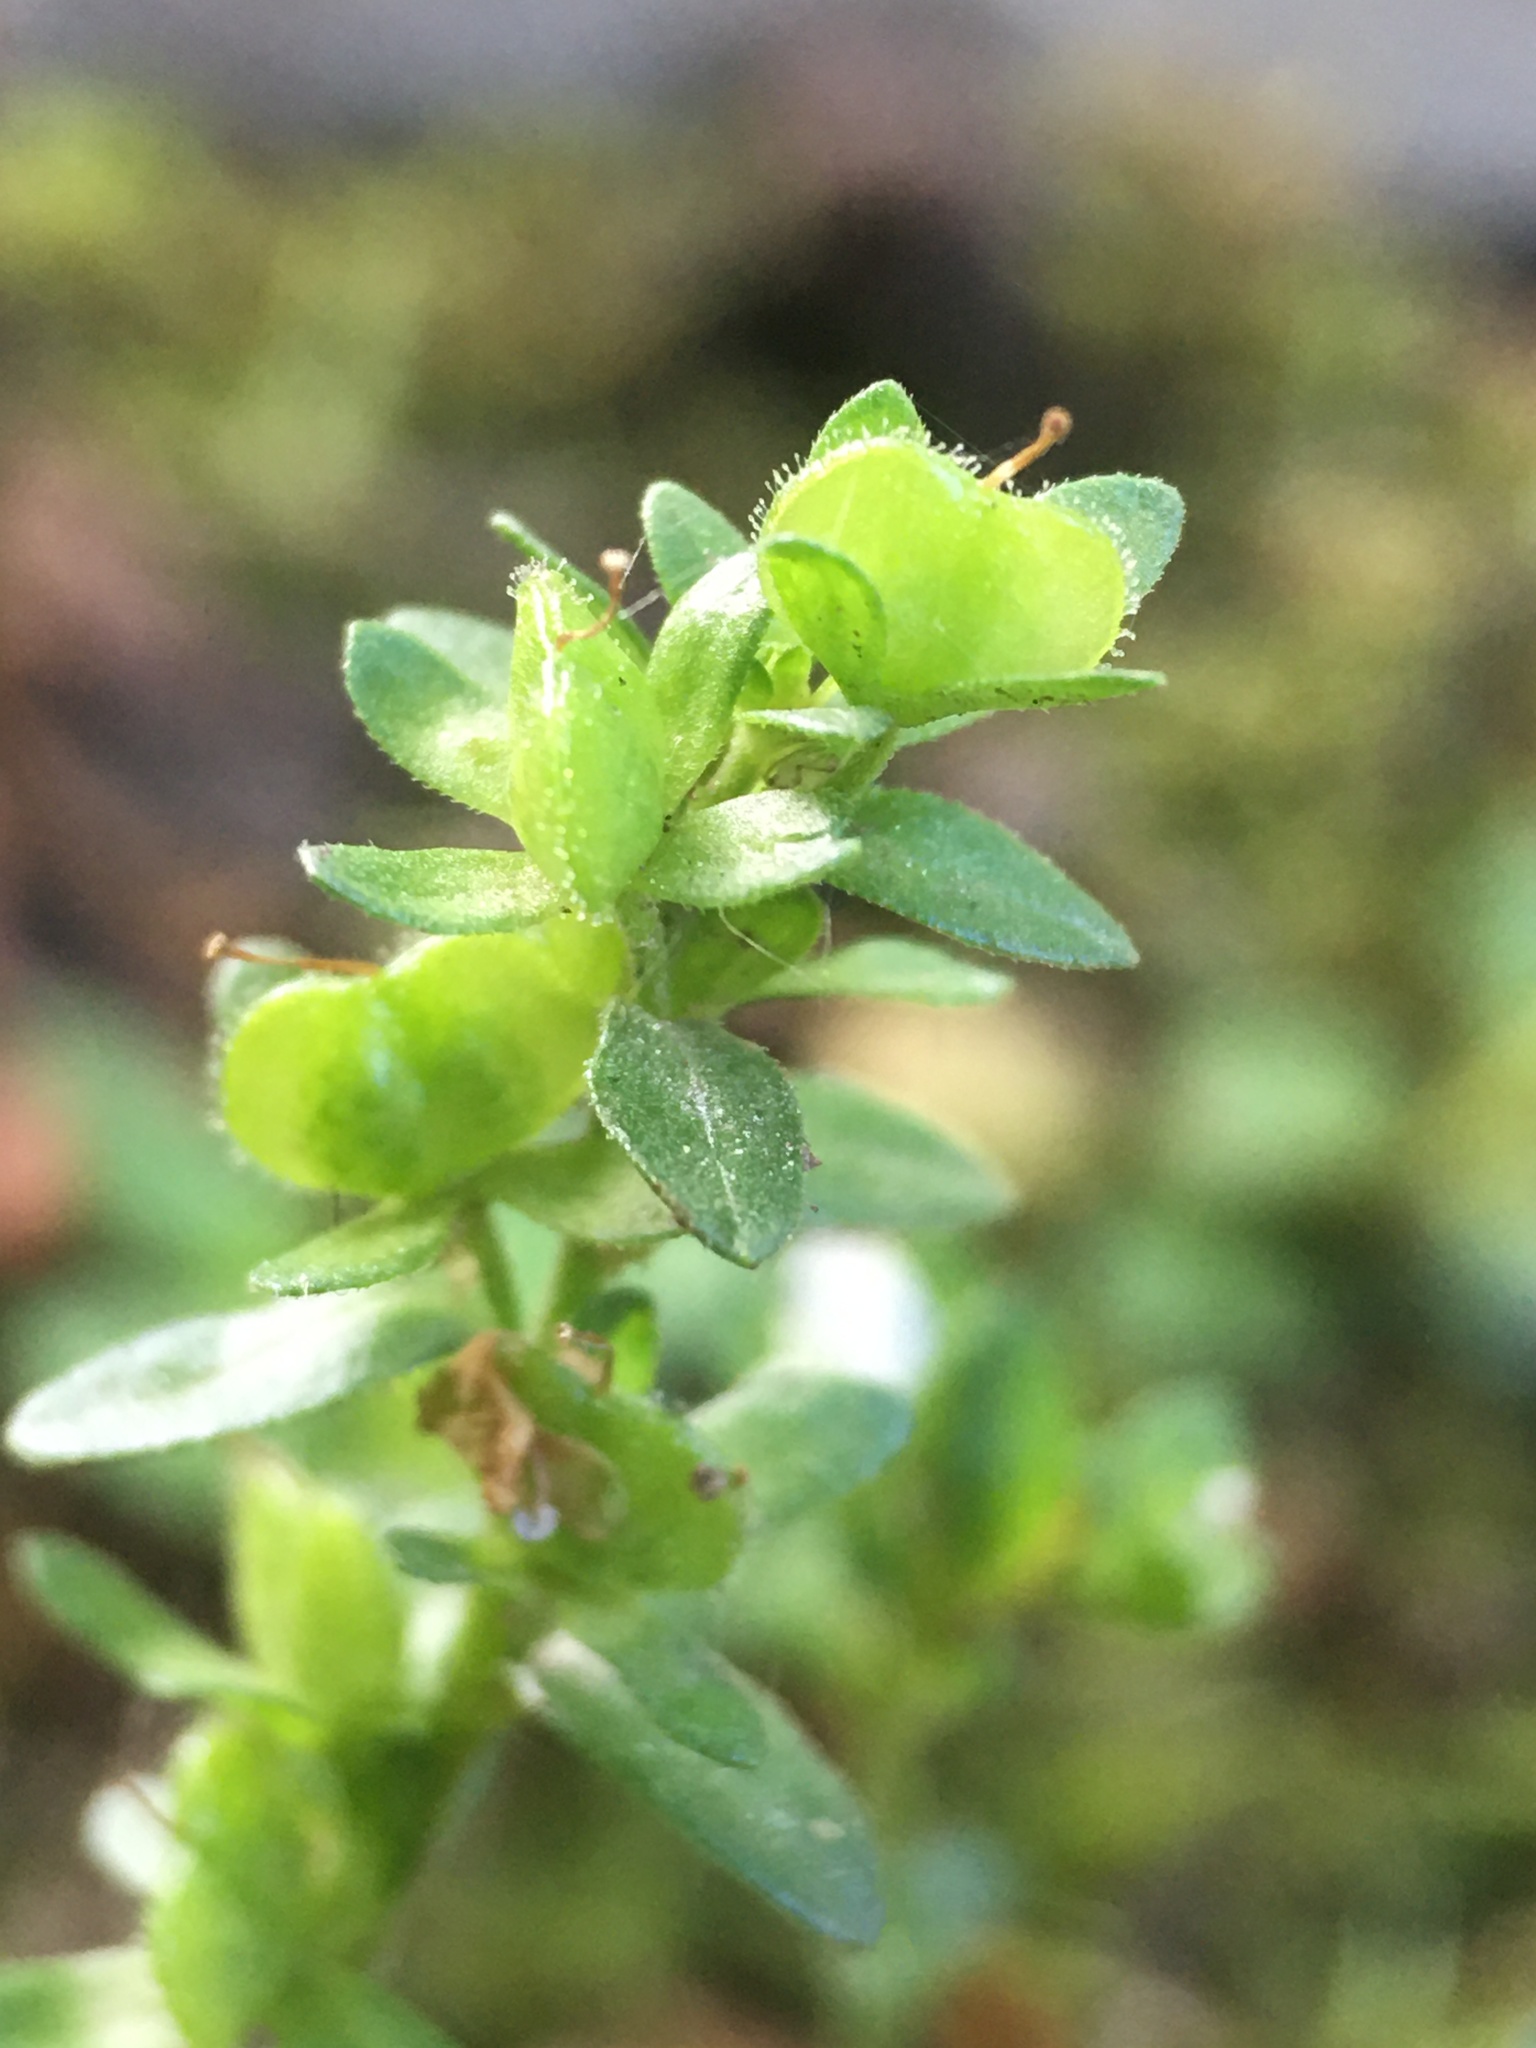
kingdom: Plantae
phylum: Tracheophyta
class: Magnoliopsida
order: Lamiales
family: Plantaginaceae
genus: Veronica
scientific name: Veronica serpyllifolia
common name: Thyme-leaved speedwell
